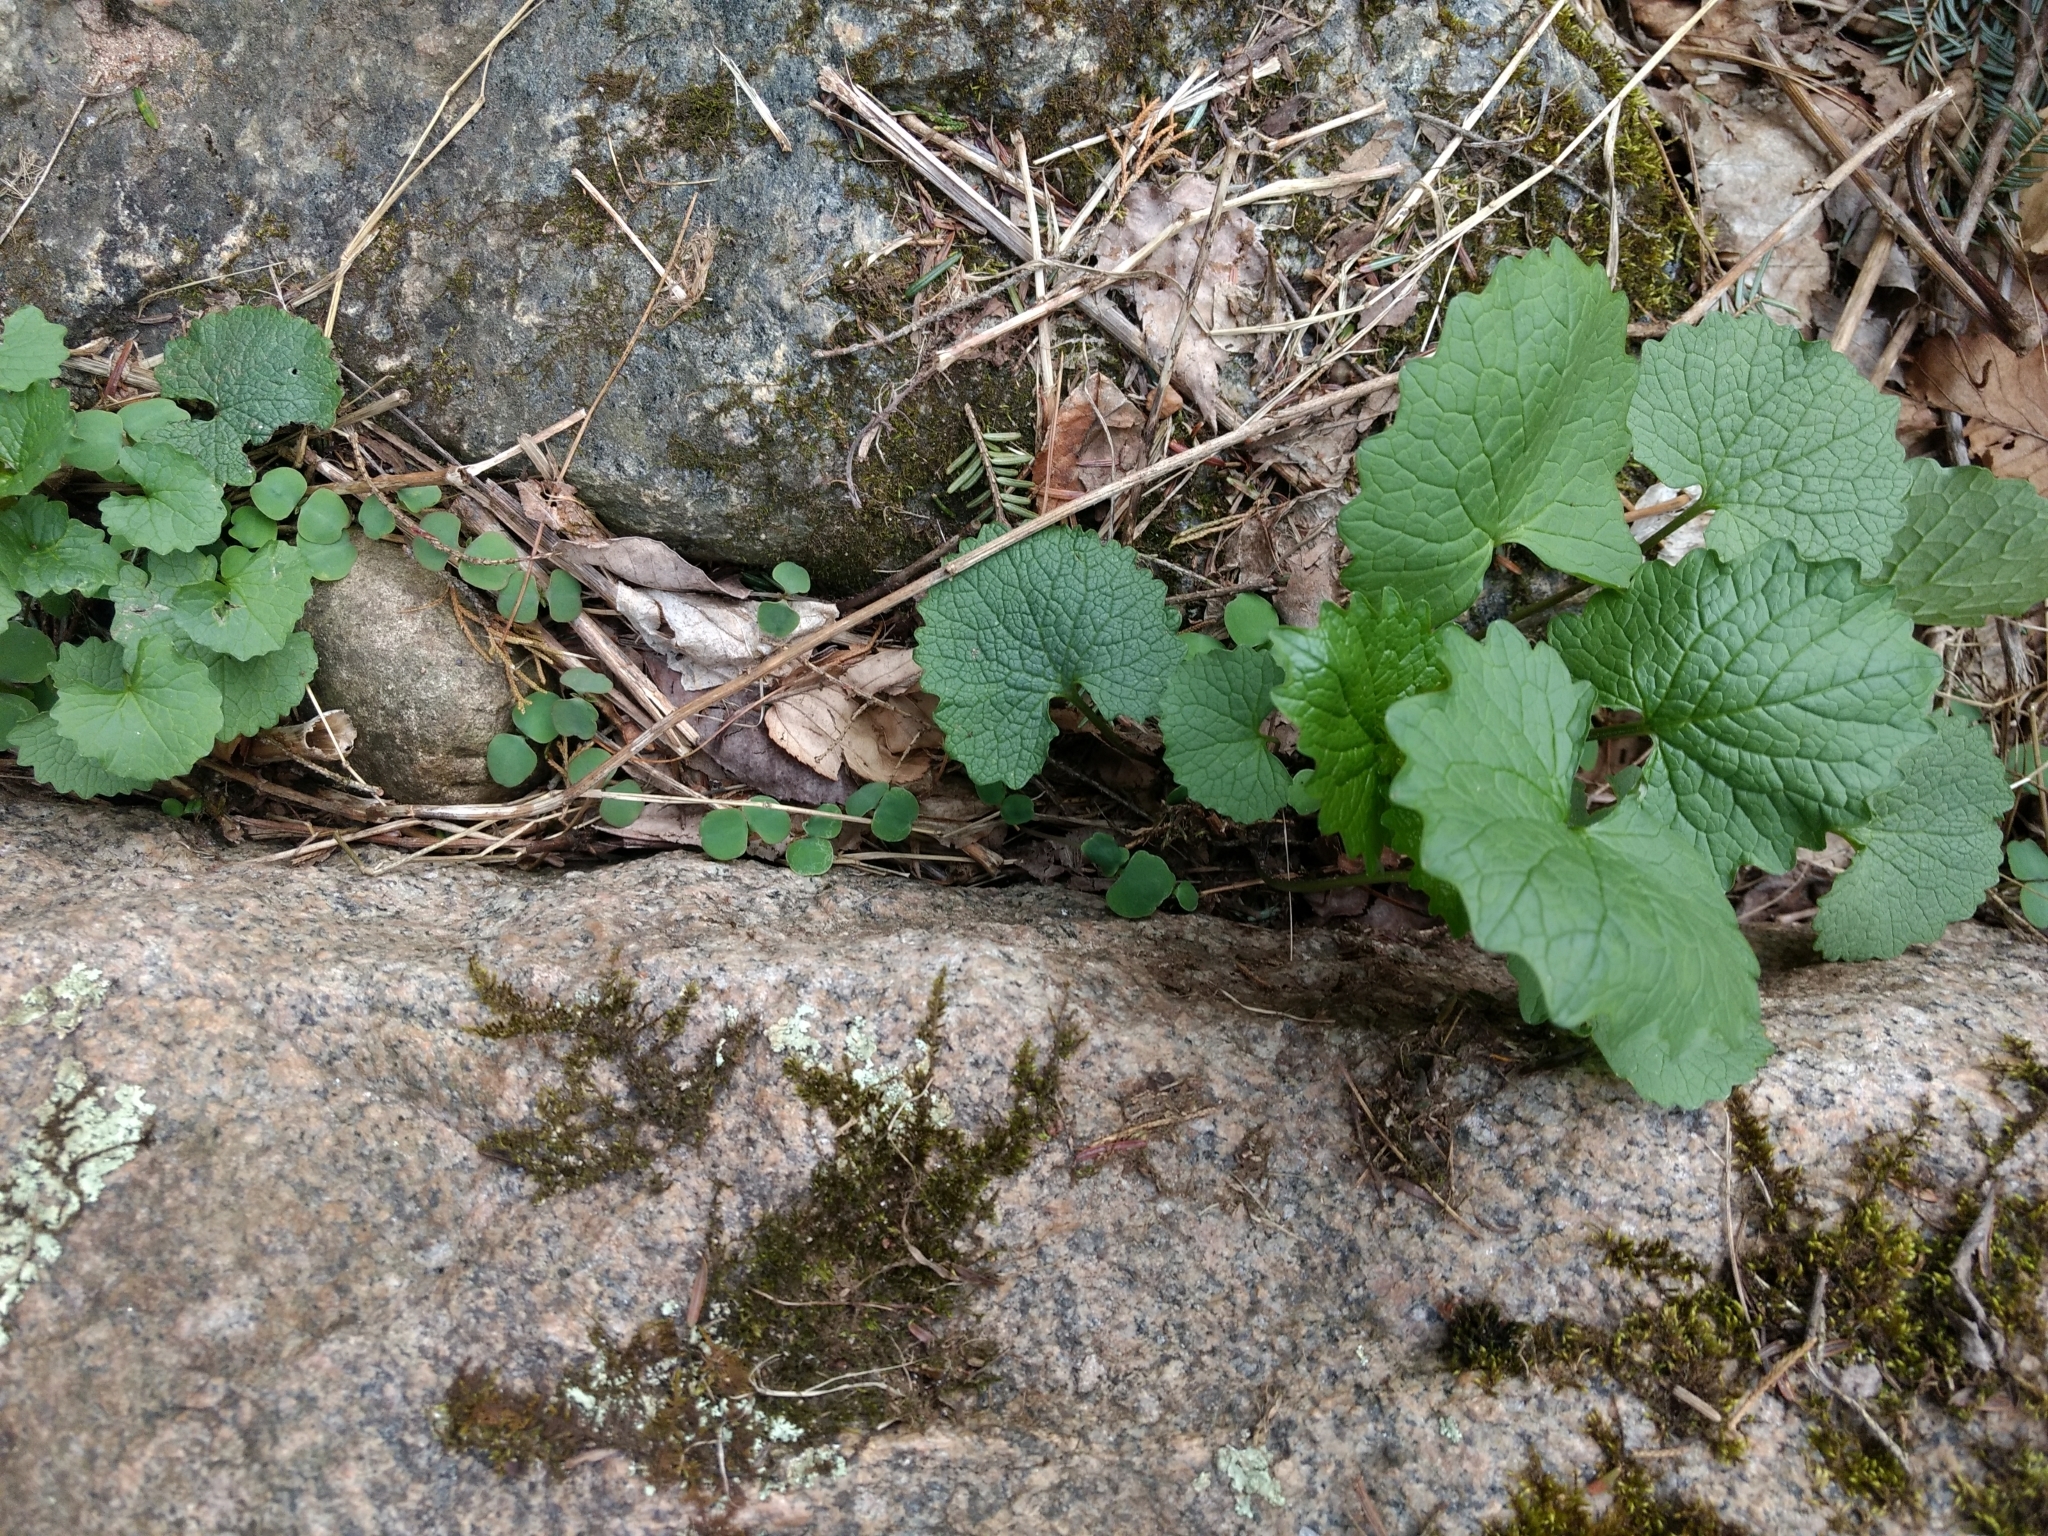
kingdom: Plantae
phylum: Tracheophyta
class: Magnoliopsida
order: Brassicales
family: Brassicaceae
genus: Alliaria
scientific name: Alliaria petiolata
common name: Garlic mustard
